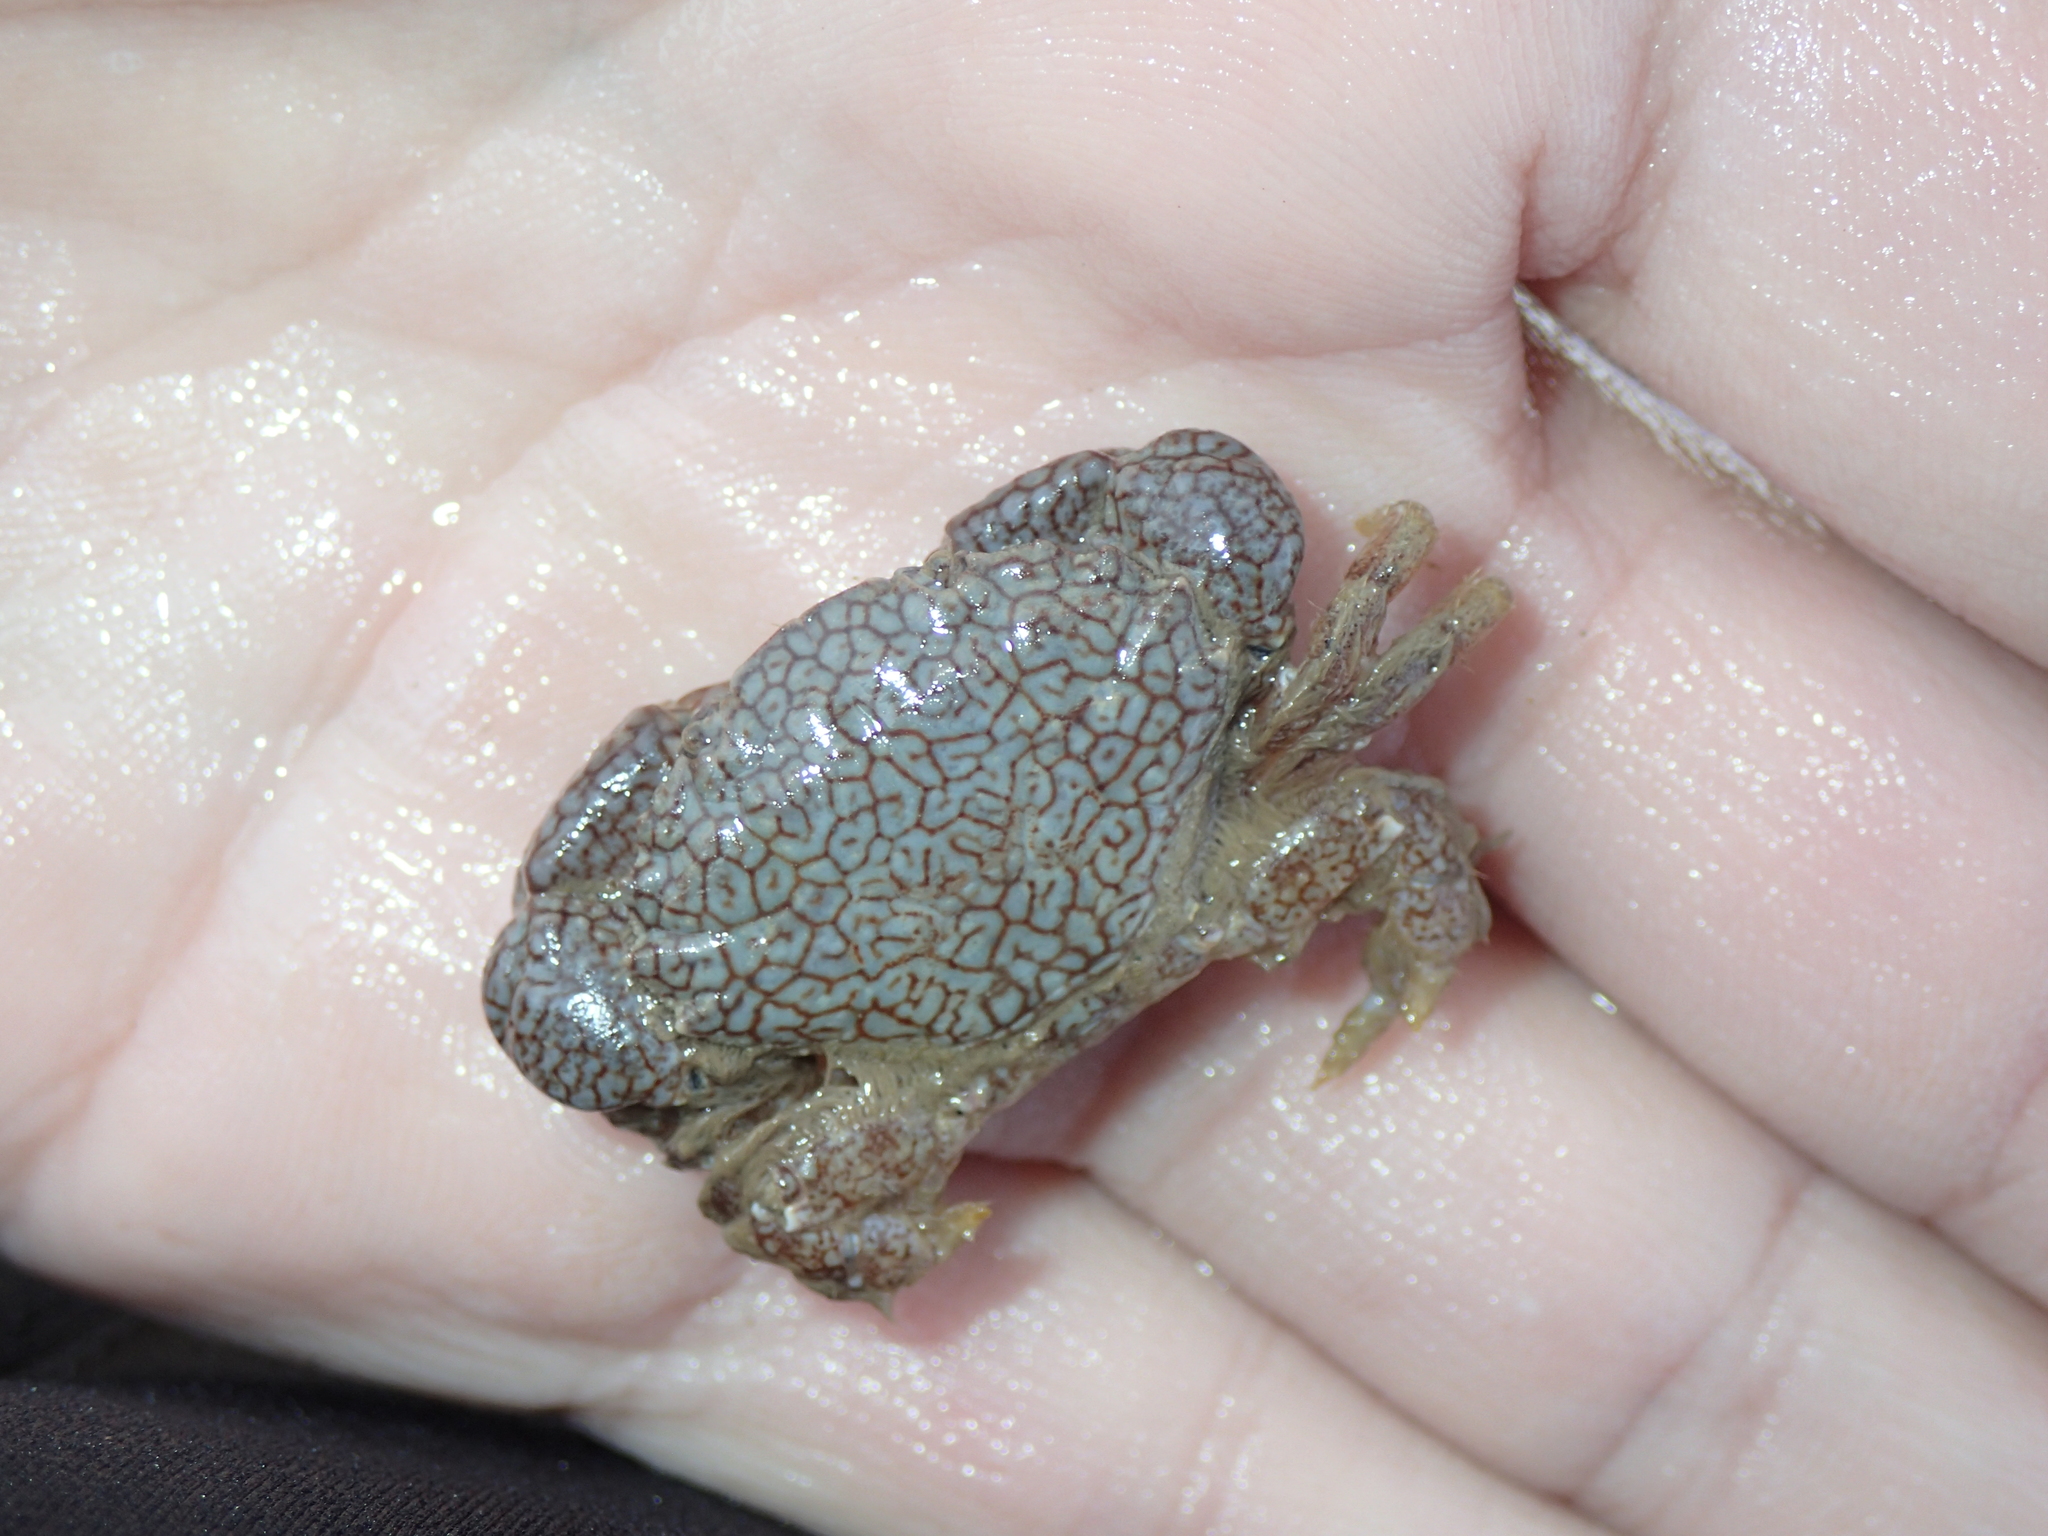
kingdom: Animalia
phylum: Arthropoda
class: Malacostraca
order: Decapoda
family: Xanthidae
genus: Xantho
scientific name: Xantho pilipes
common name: Risso's crab
